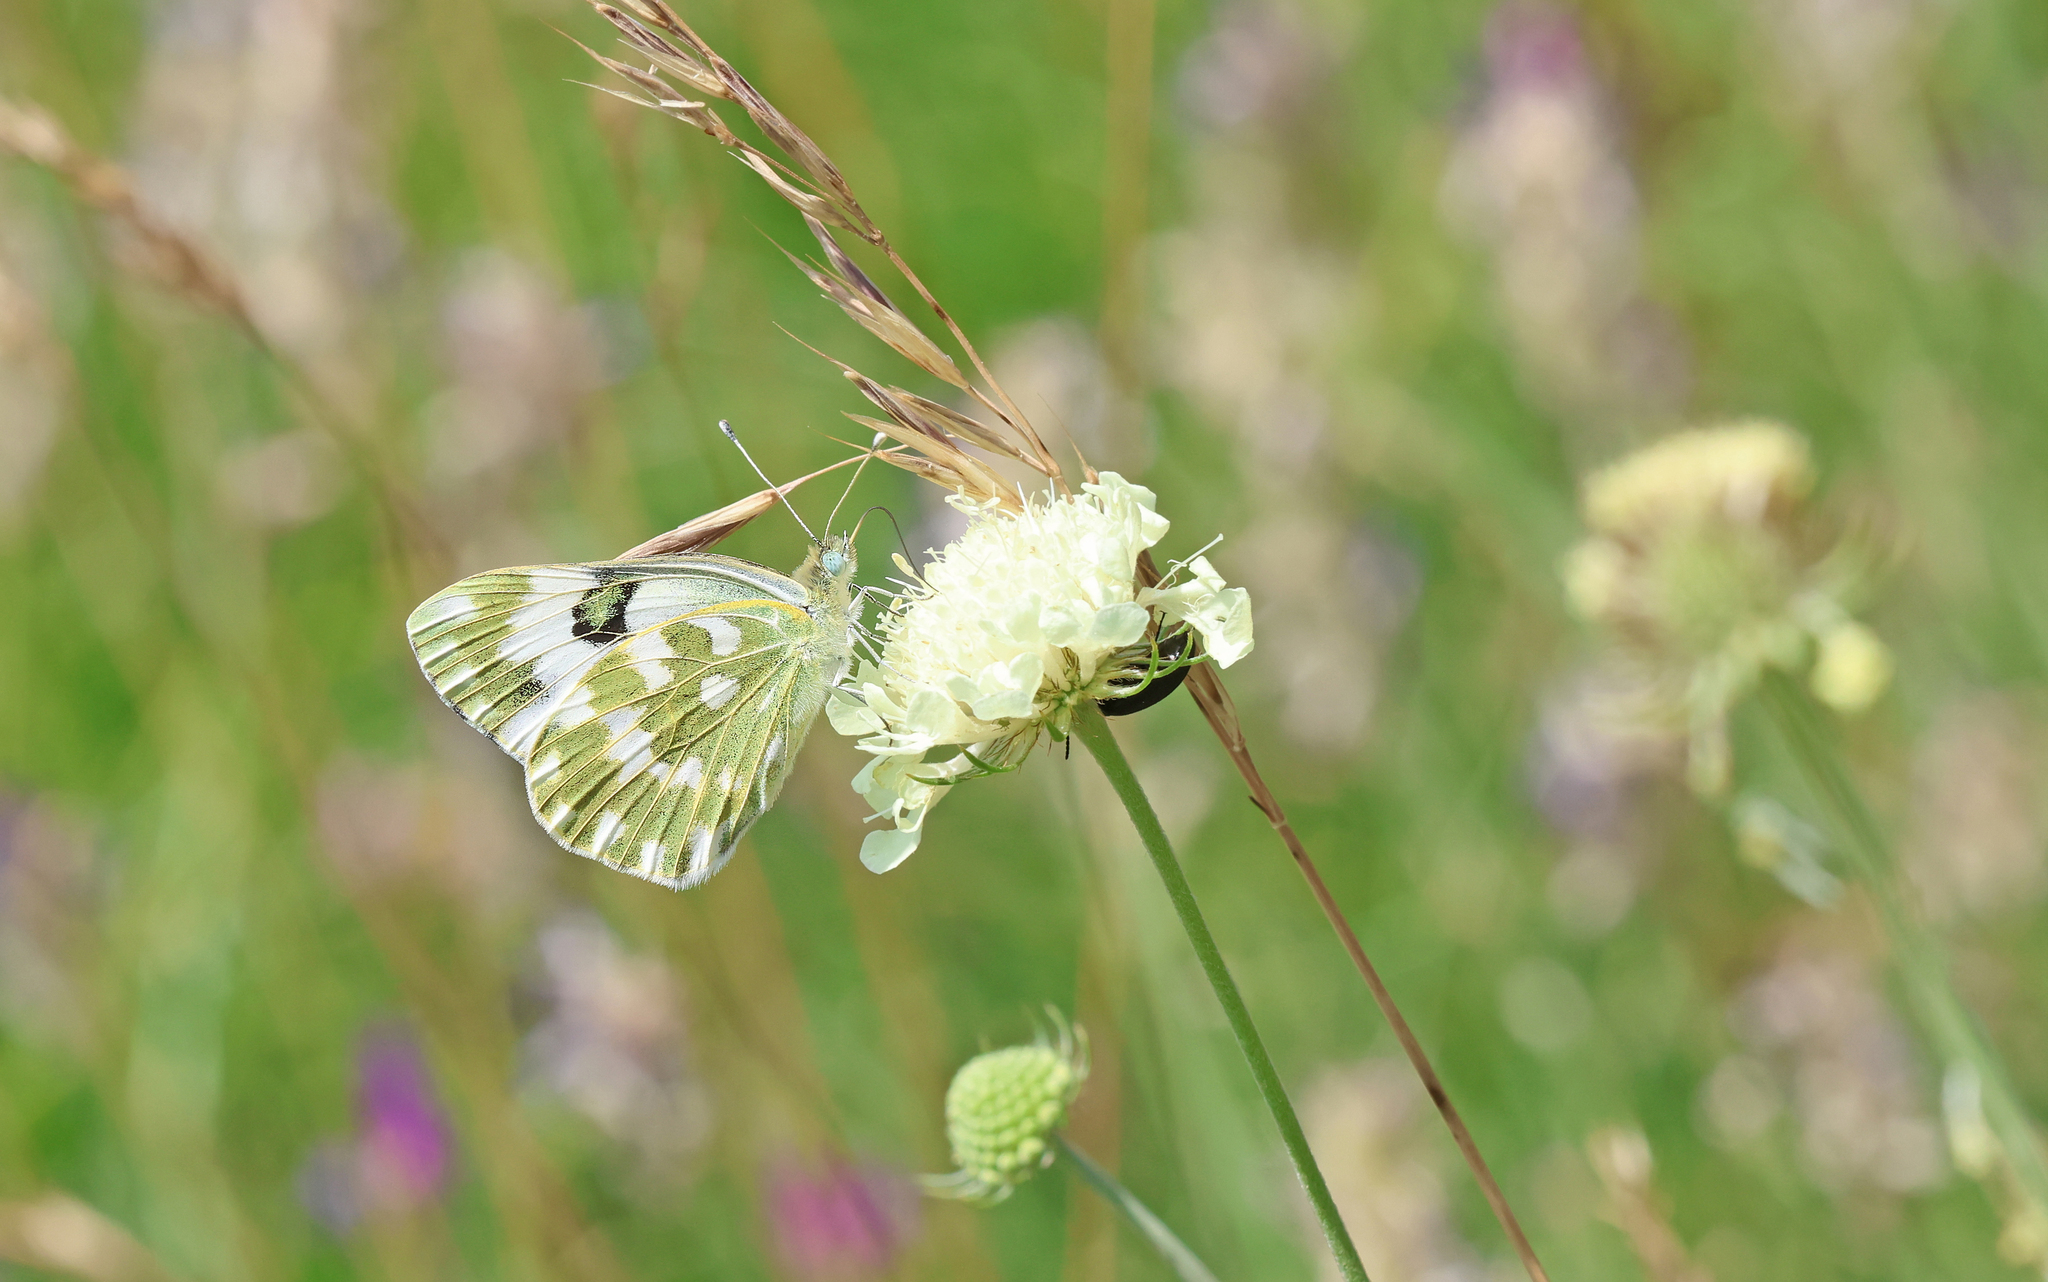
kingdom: Animalia
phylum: Arthropoda
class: Insecta
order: Lepidoptera
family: Pieridae
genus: Pontia
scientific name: Pontia edusa
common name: Eastern bath white
